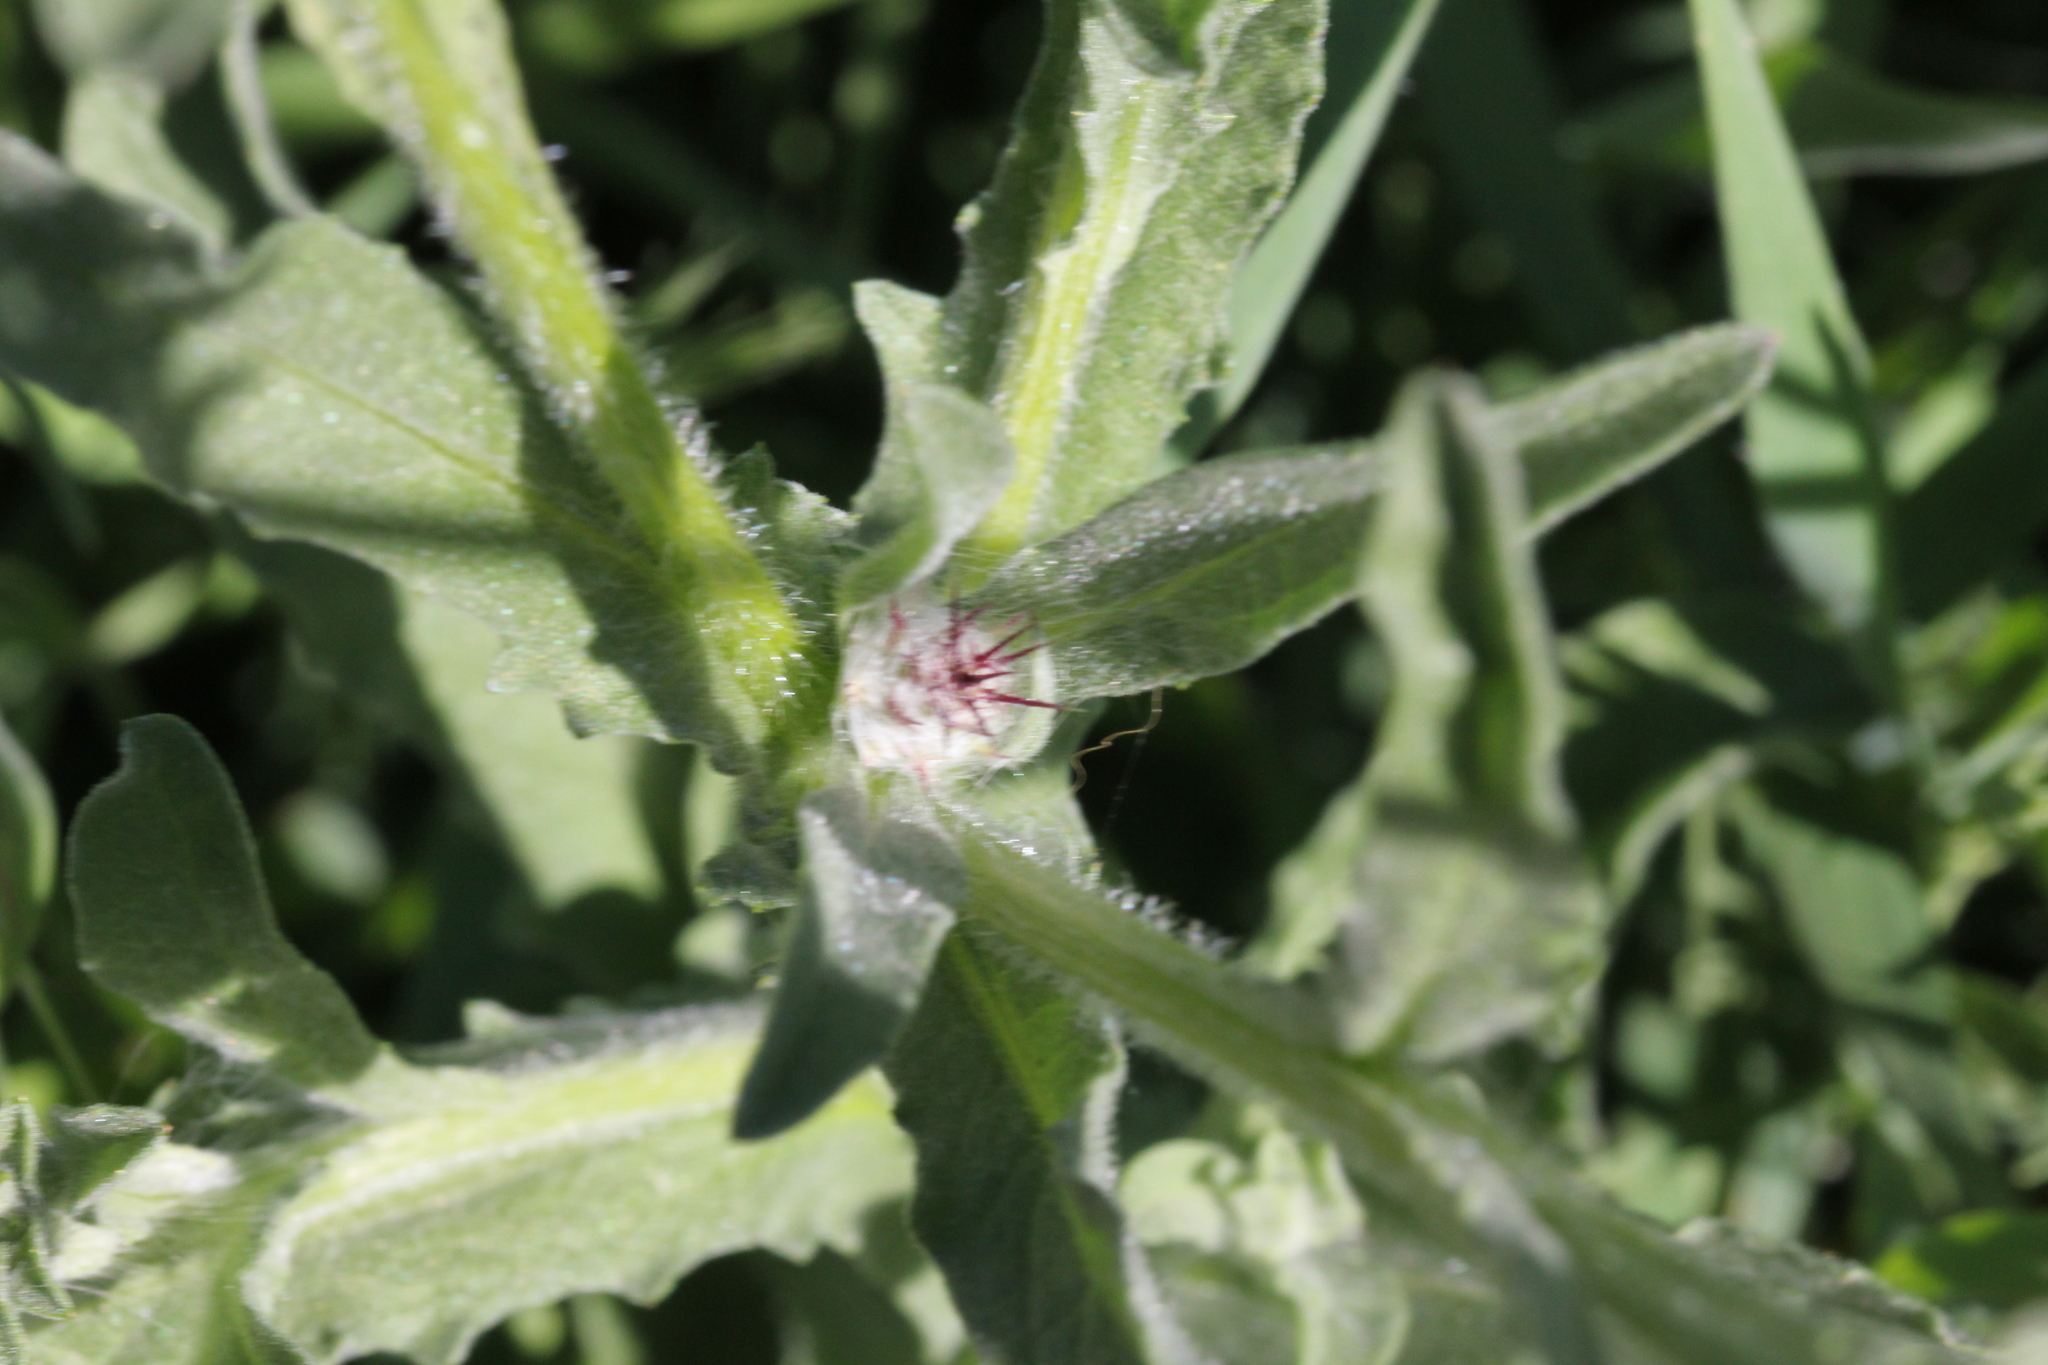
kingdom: Plantae
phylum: Tracheophyta
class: Magnoliopsida
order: Asterales
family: Asteraceae
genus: Centaurea
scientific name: Centaurea melitensis
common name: Maltese star-thistle
